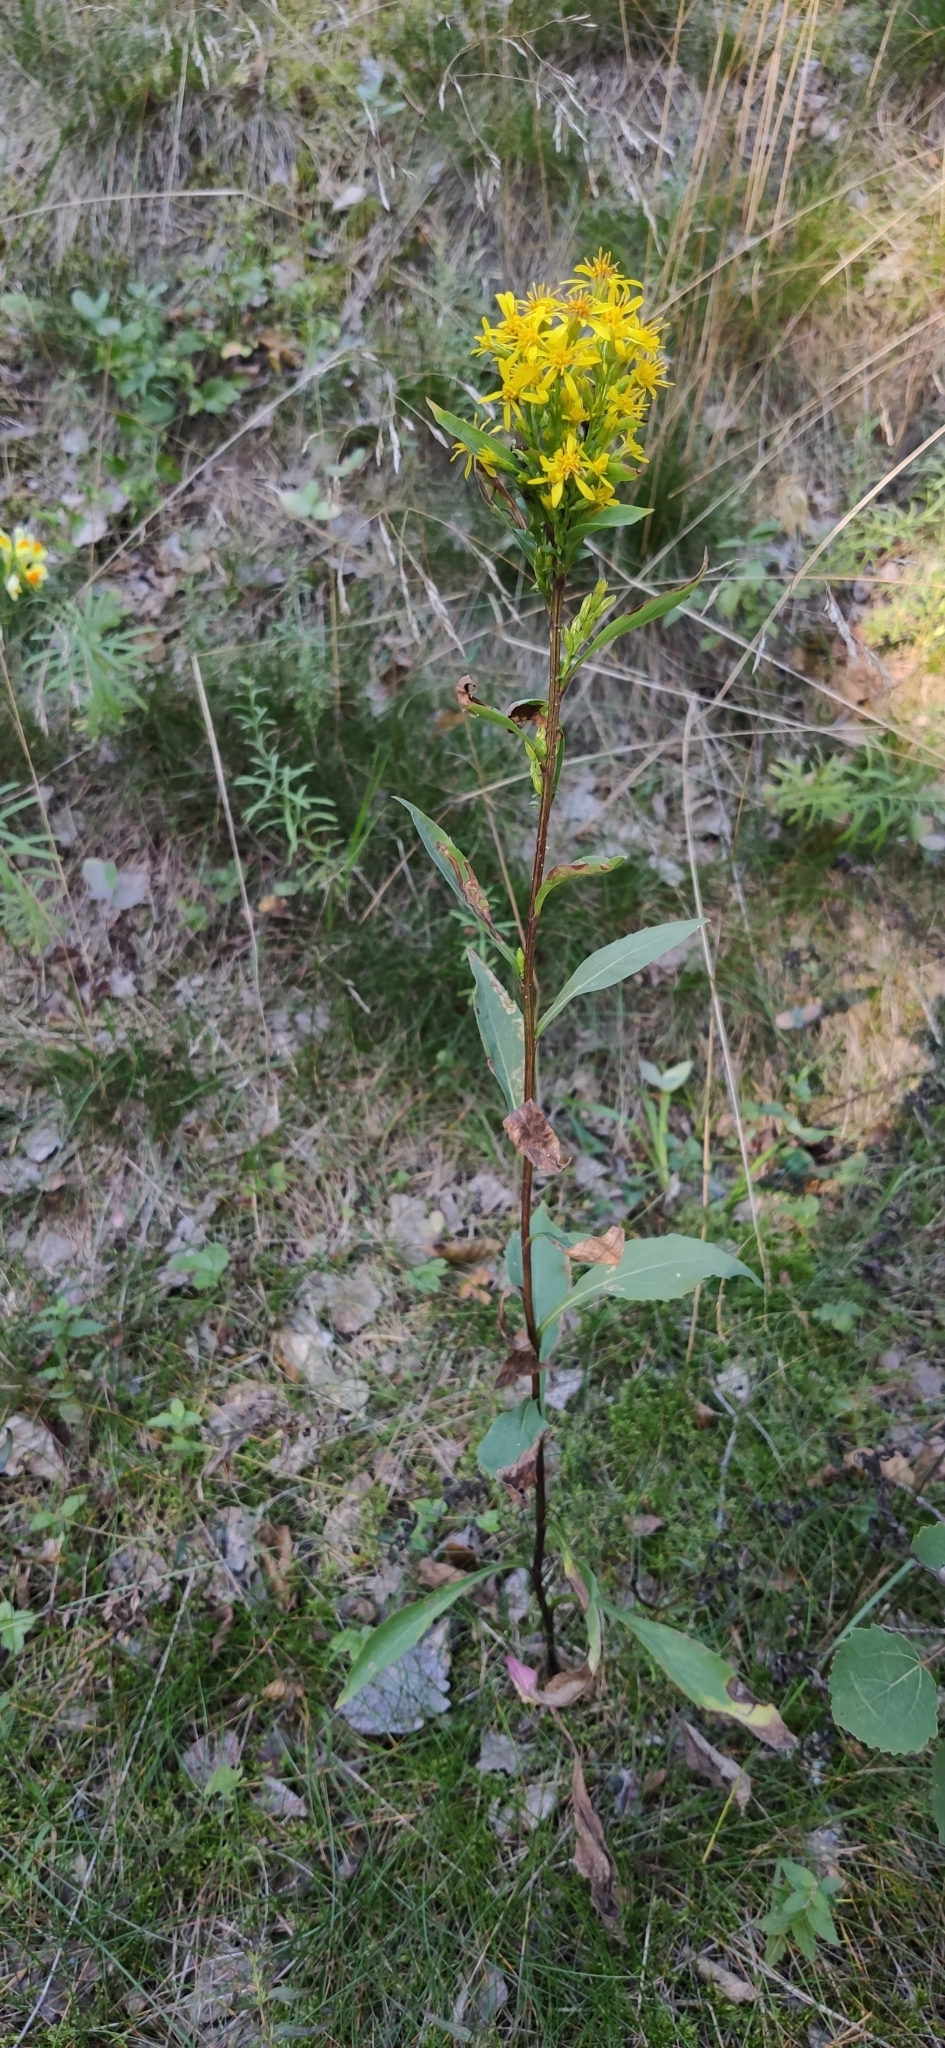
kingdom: Plantae
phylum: Tracheophyta
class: Magnoliopsida
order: Asterales
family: Asteraceae
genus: Solidago
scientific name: Solidago virgaurea
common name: Goldenrod
